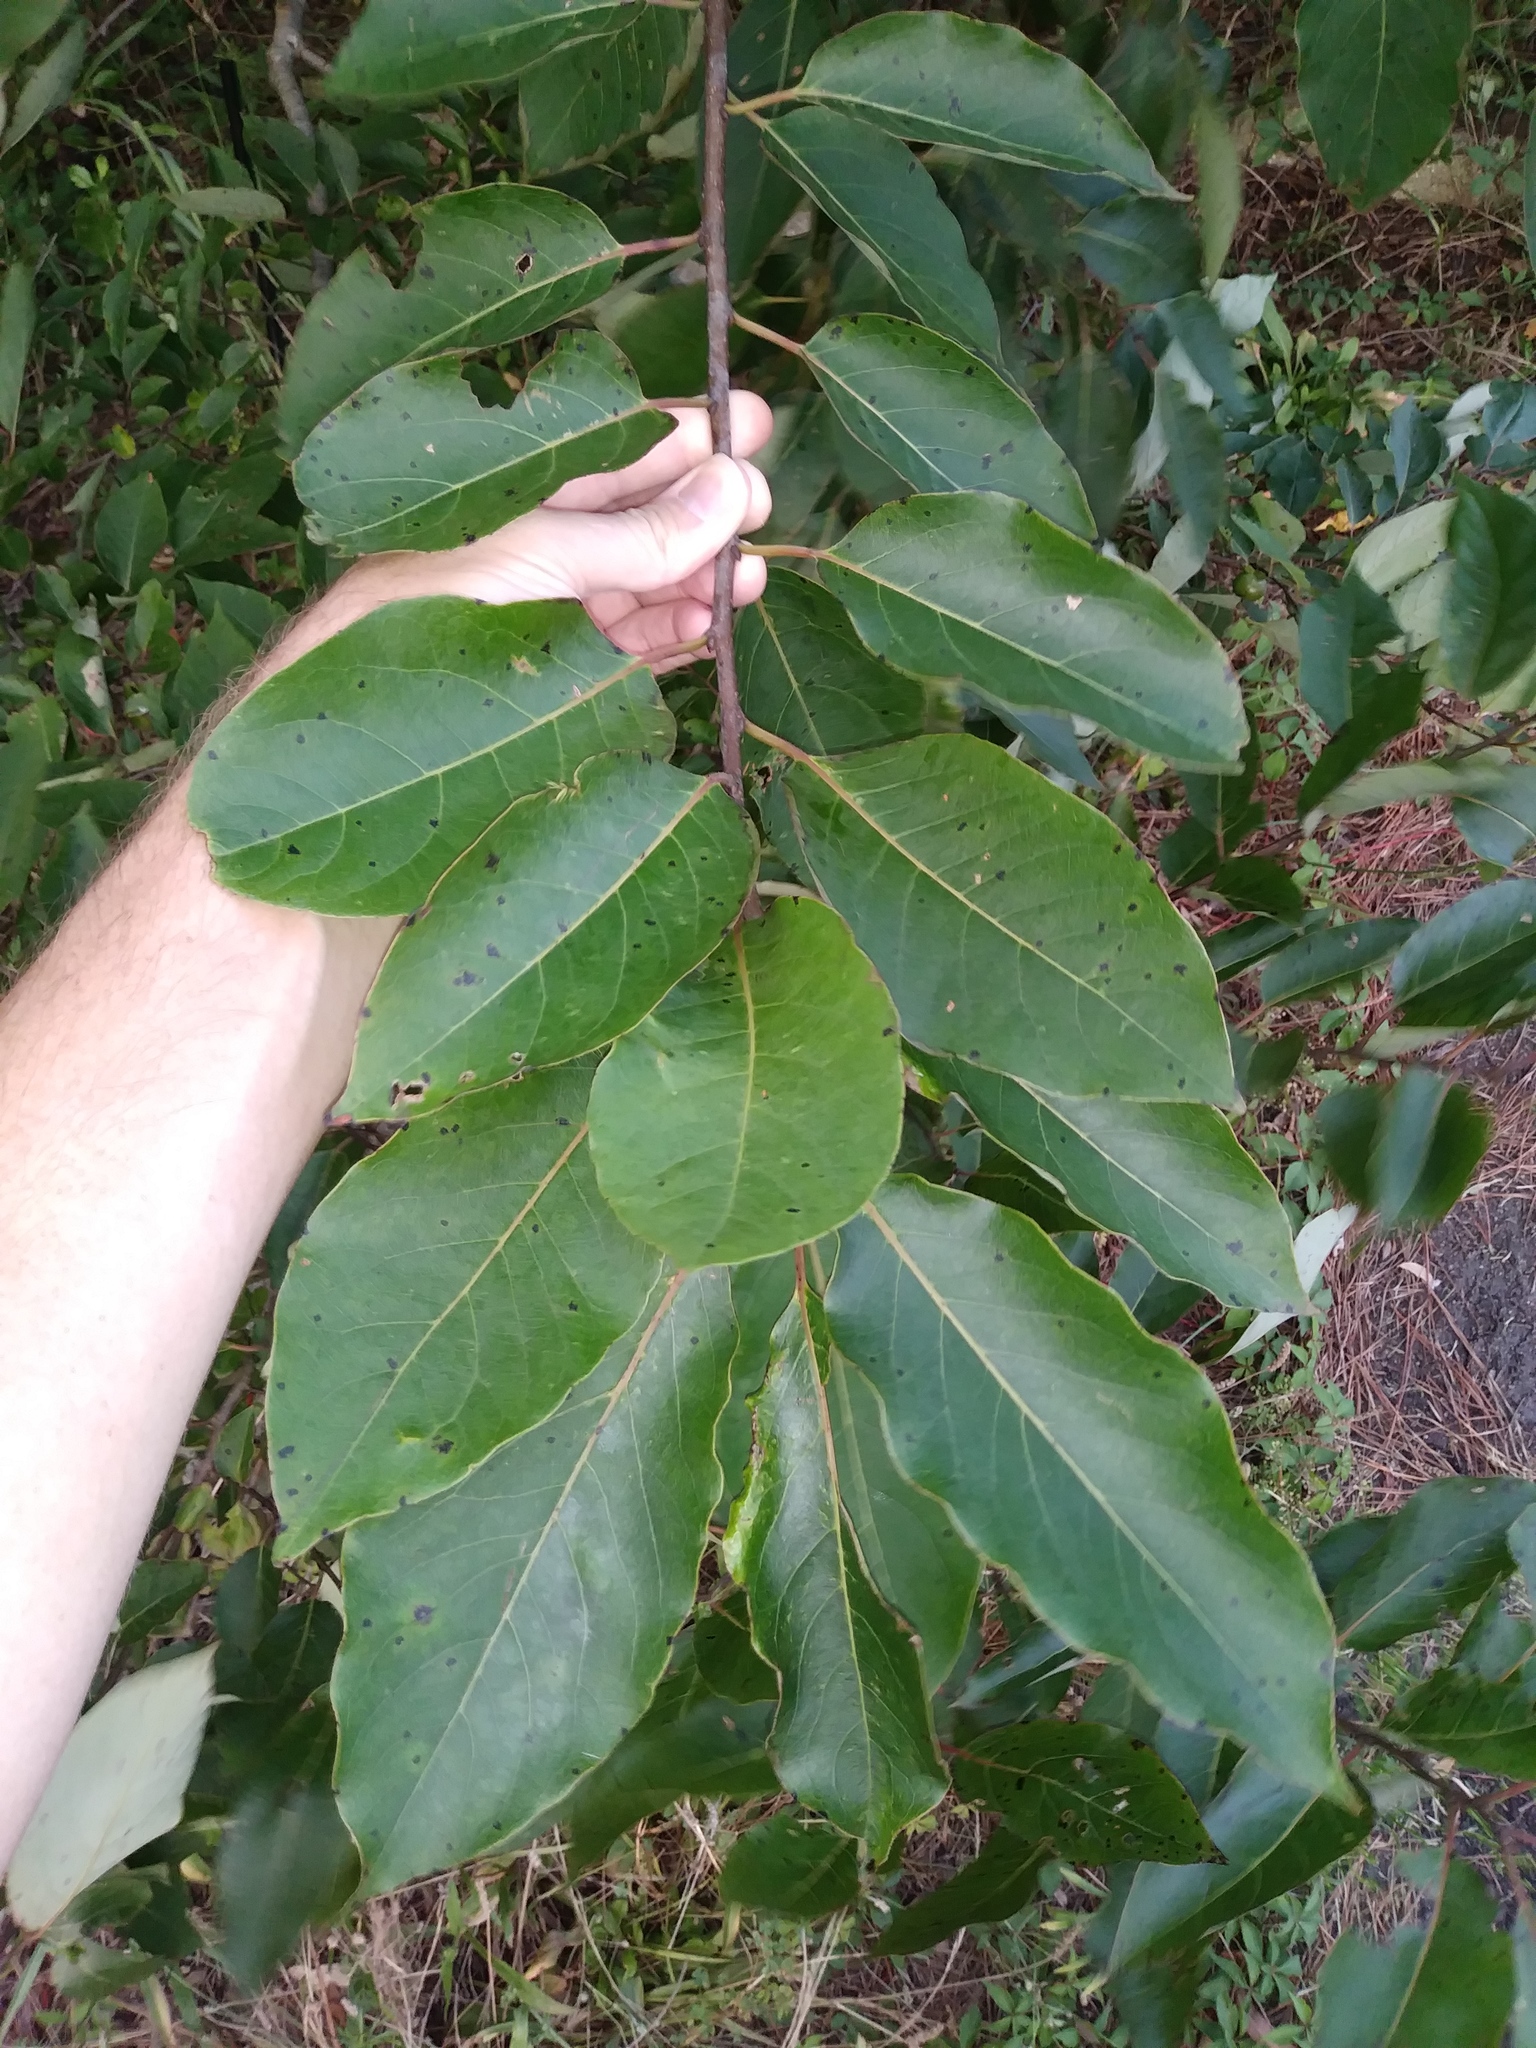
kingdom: Plantae
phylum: Tracheophyta
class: Magnoliopsida
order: Ericales
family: Ebenaceae
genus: Diospyros
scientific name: Diospyros virginiana
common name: Persimmon
